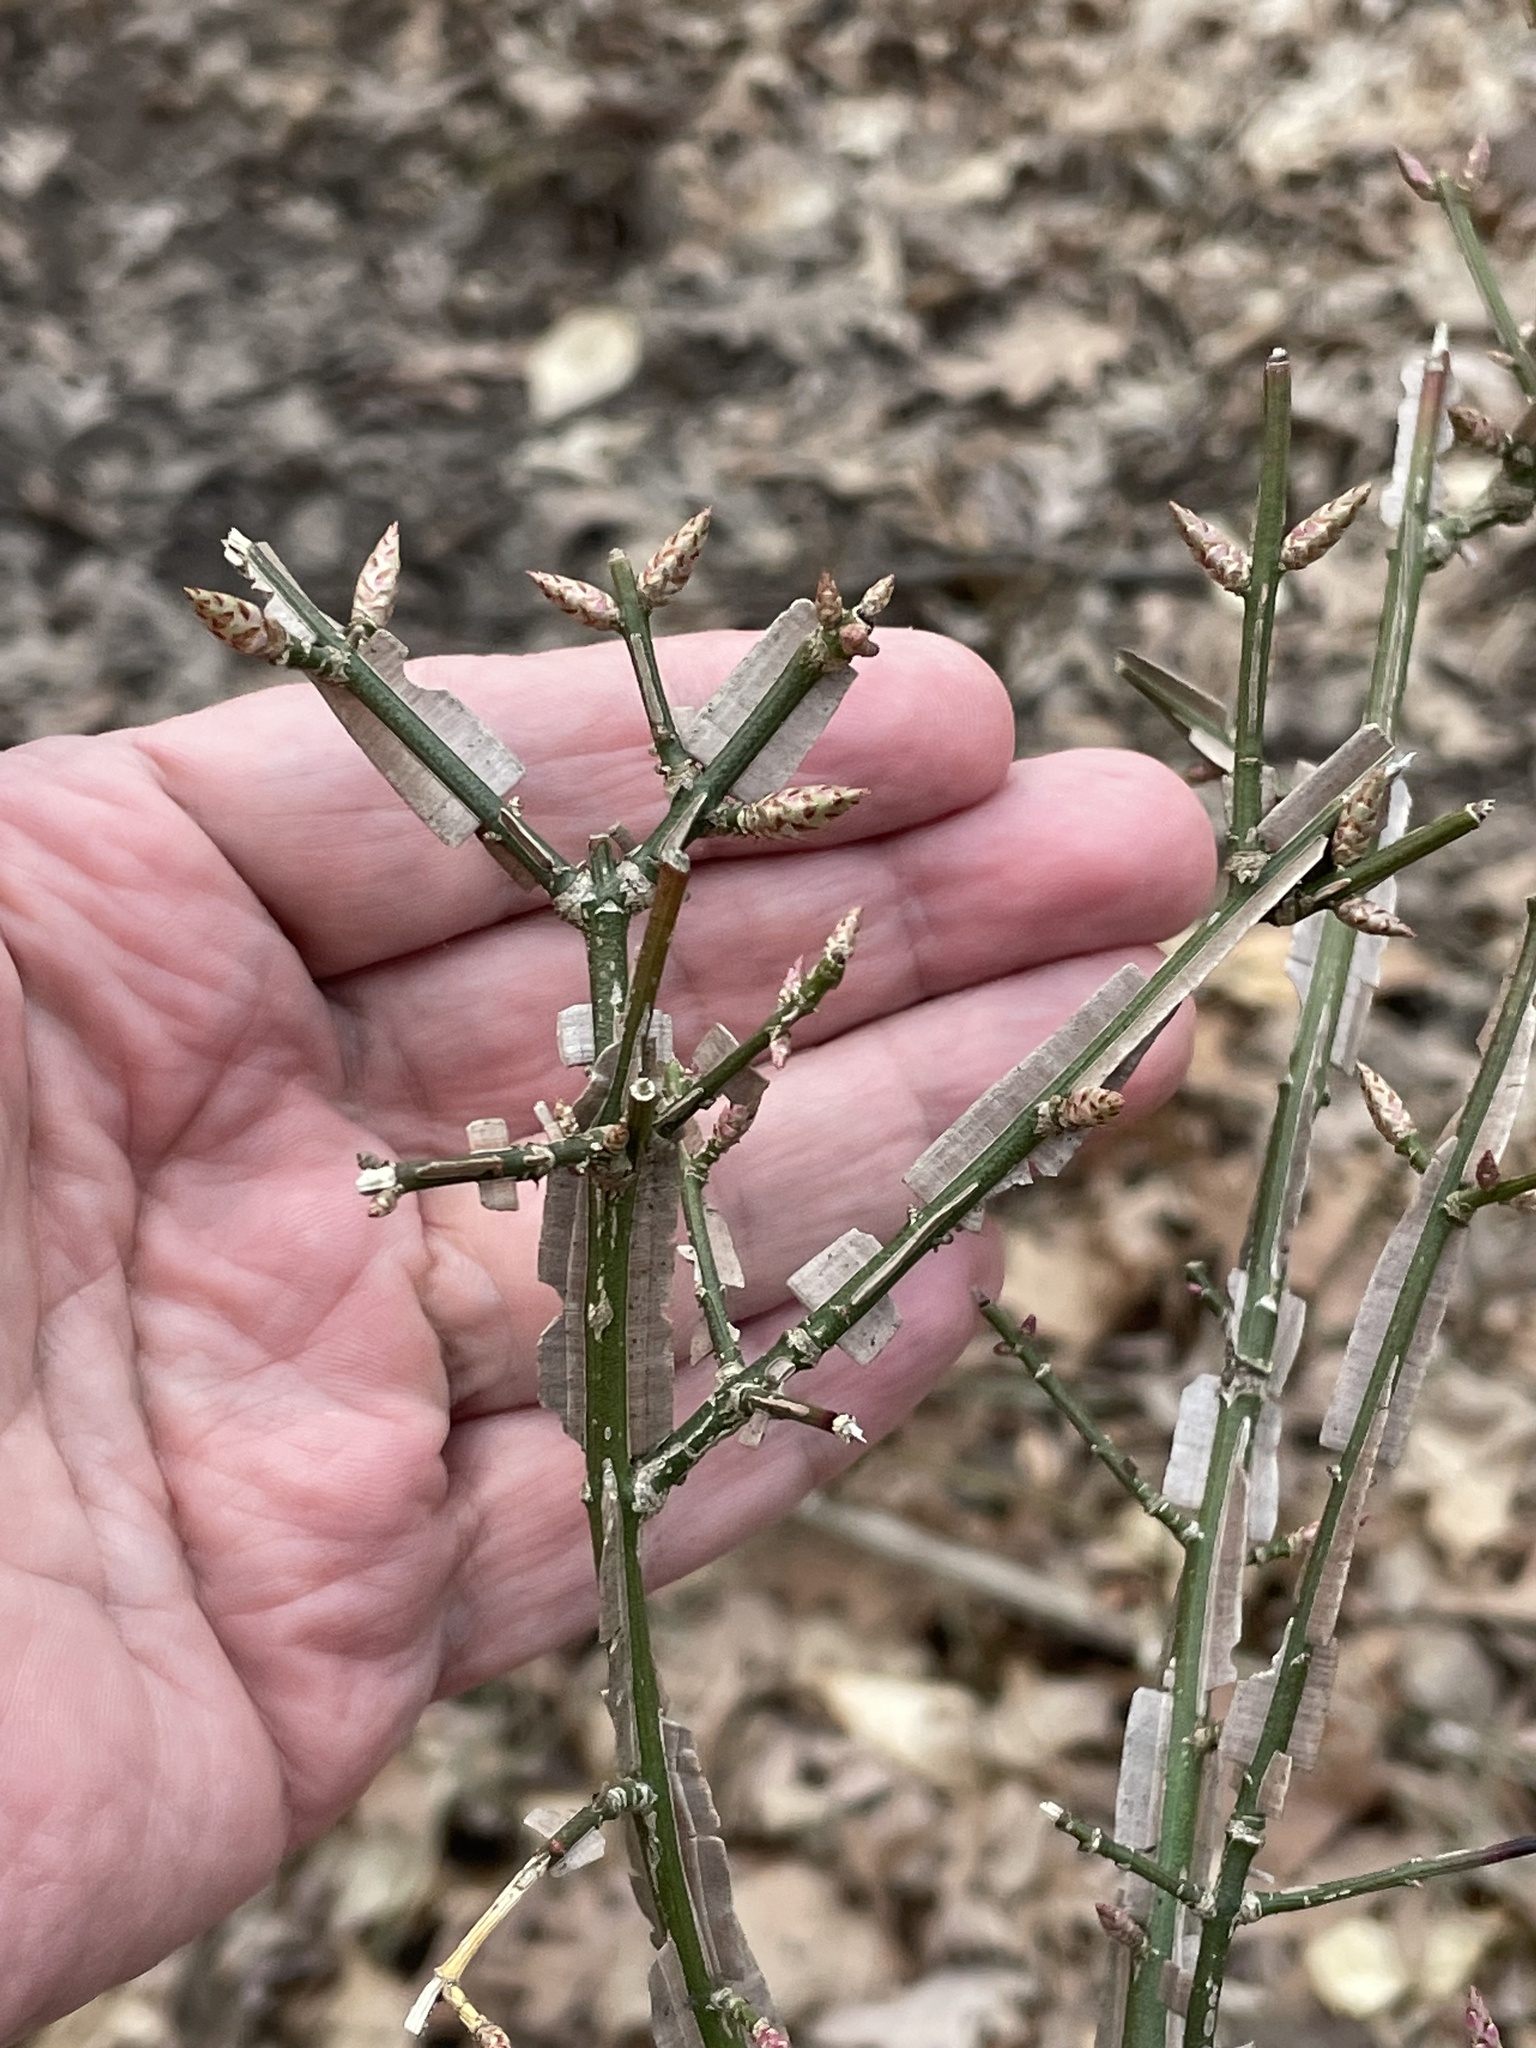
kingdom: Plantae
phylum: Tracheophyta
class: Magnoliopsida
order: Celastrales
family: Celastraceae
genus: Euonymus
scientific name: Euonymus alatus
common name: Winged euonymus
